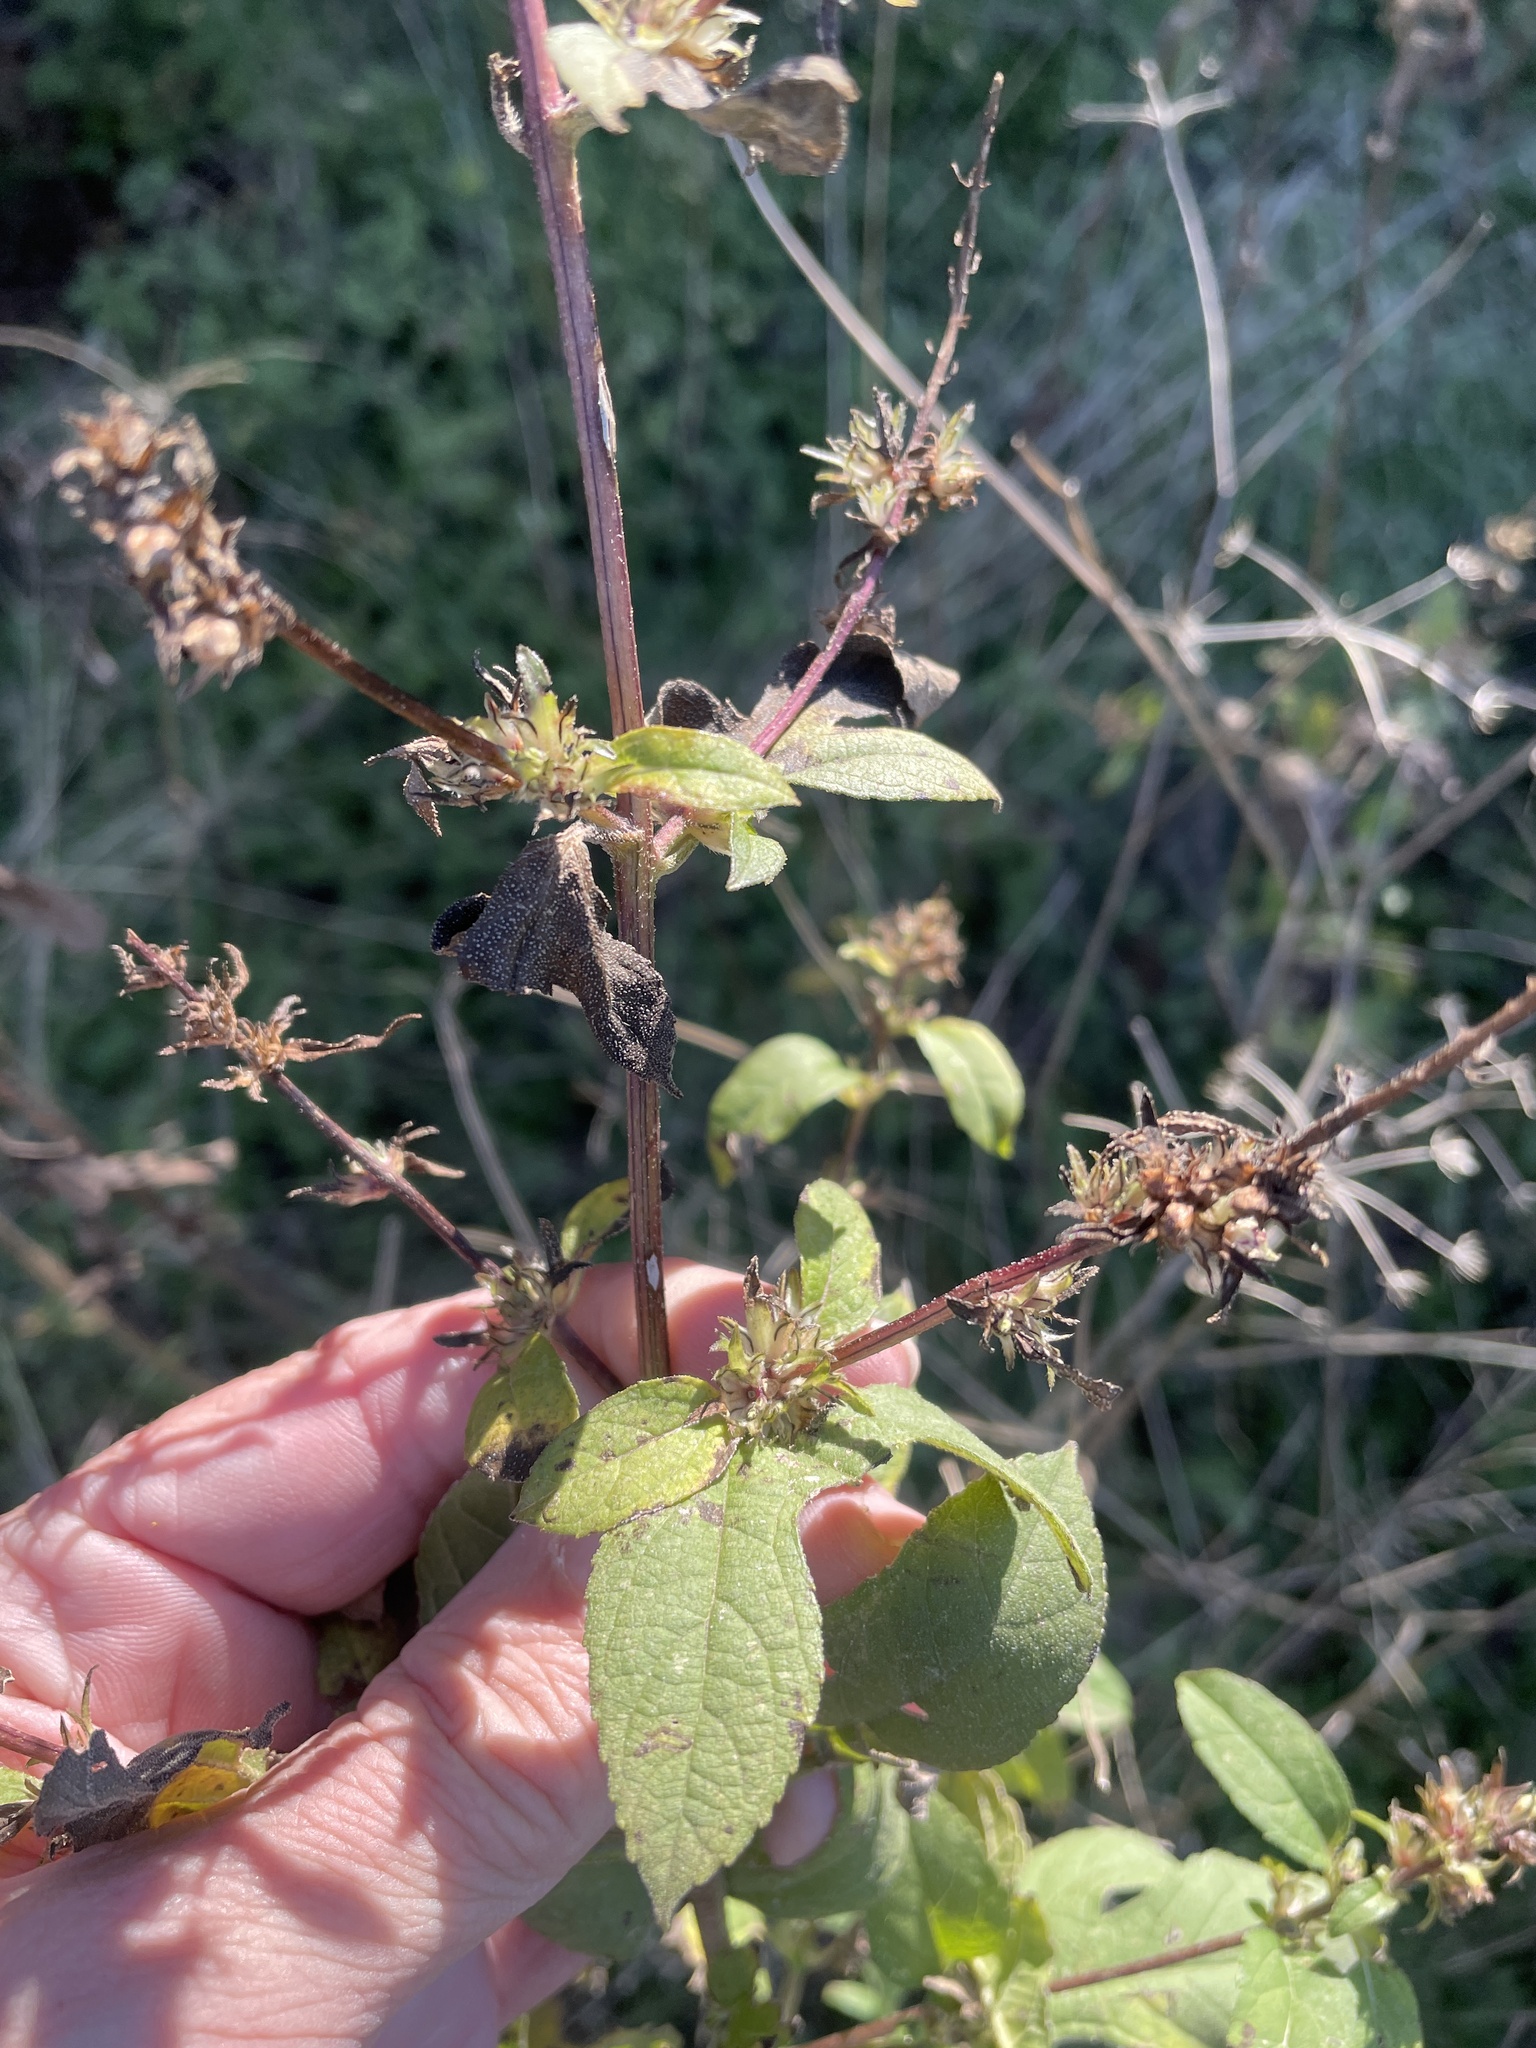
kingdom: Plantae
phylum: Tracheophyta
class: Magnoliopsida
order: Asterales
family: Asteraceae
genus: Ambrosia
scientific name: Ambrosia trifida
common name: Giant ragweed
